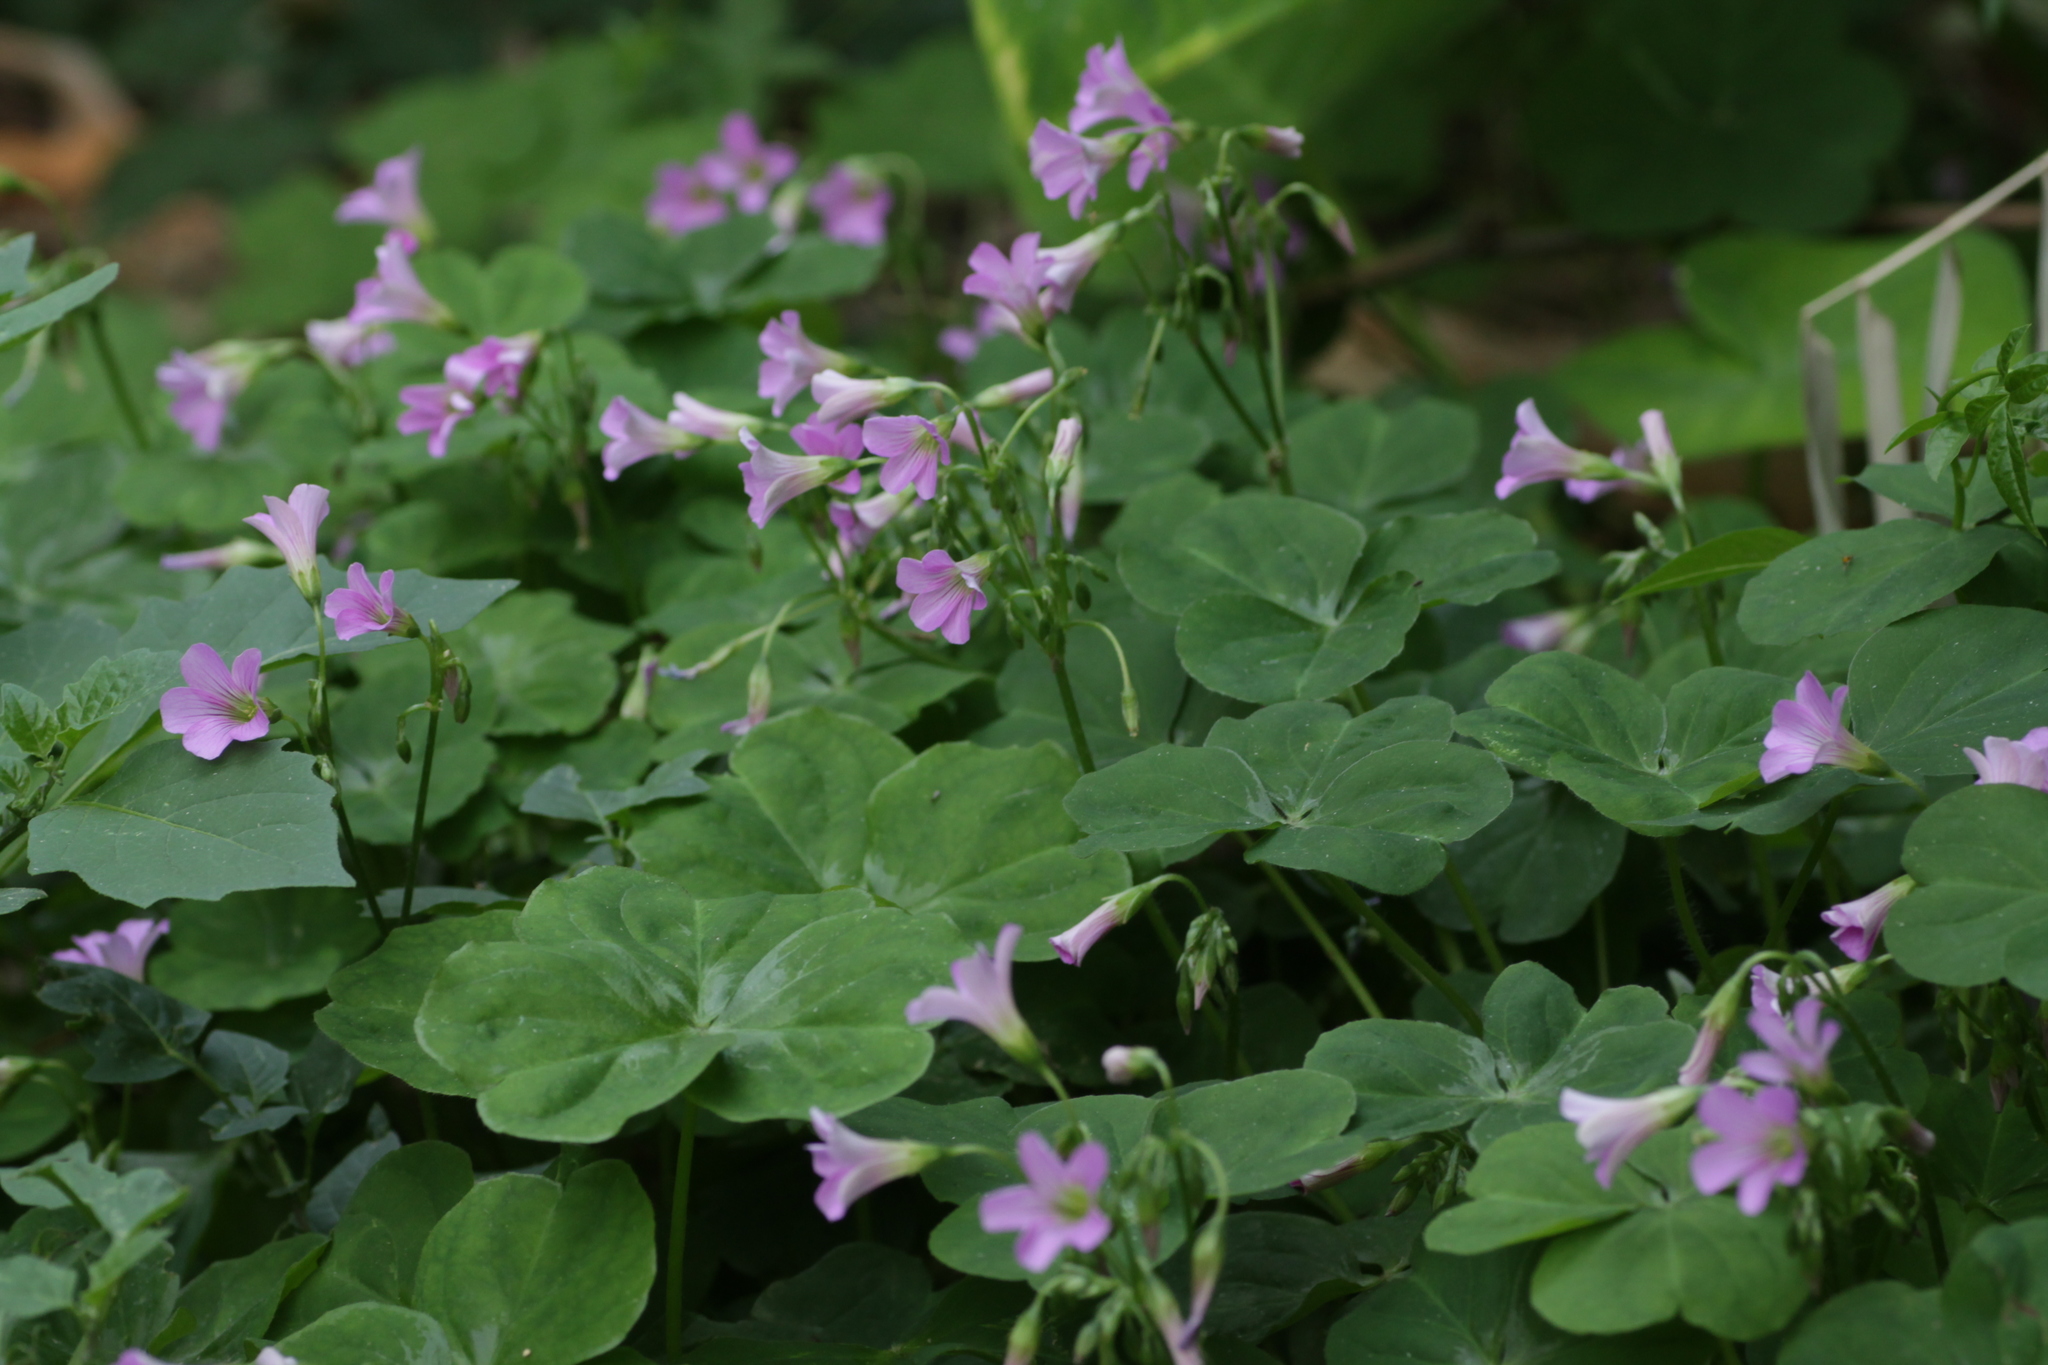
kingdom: Plantae
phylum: Tracheophyta
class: Magnoliopsida
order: Oxalidales
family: Oxalidaceae
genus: Oxalis
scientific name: Oxalis debilis
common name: Large-flowered pink-sorrel
